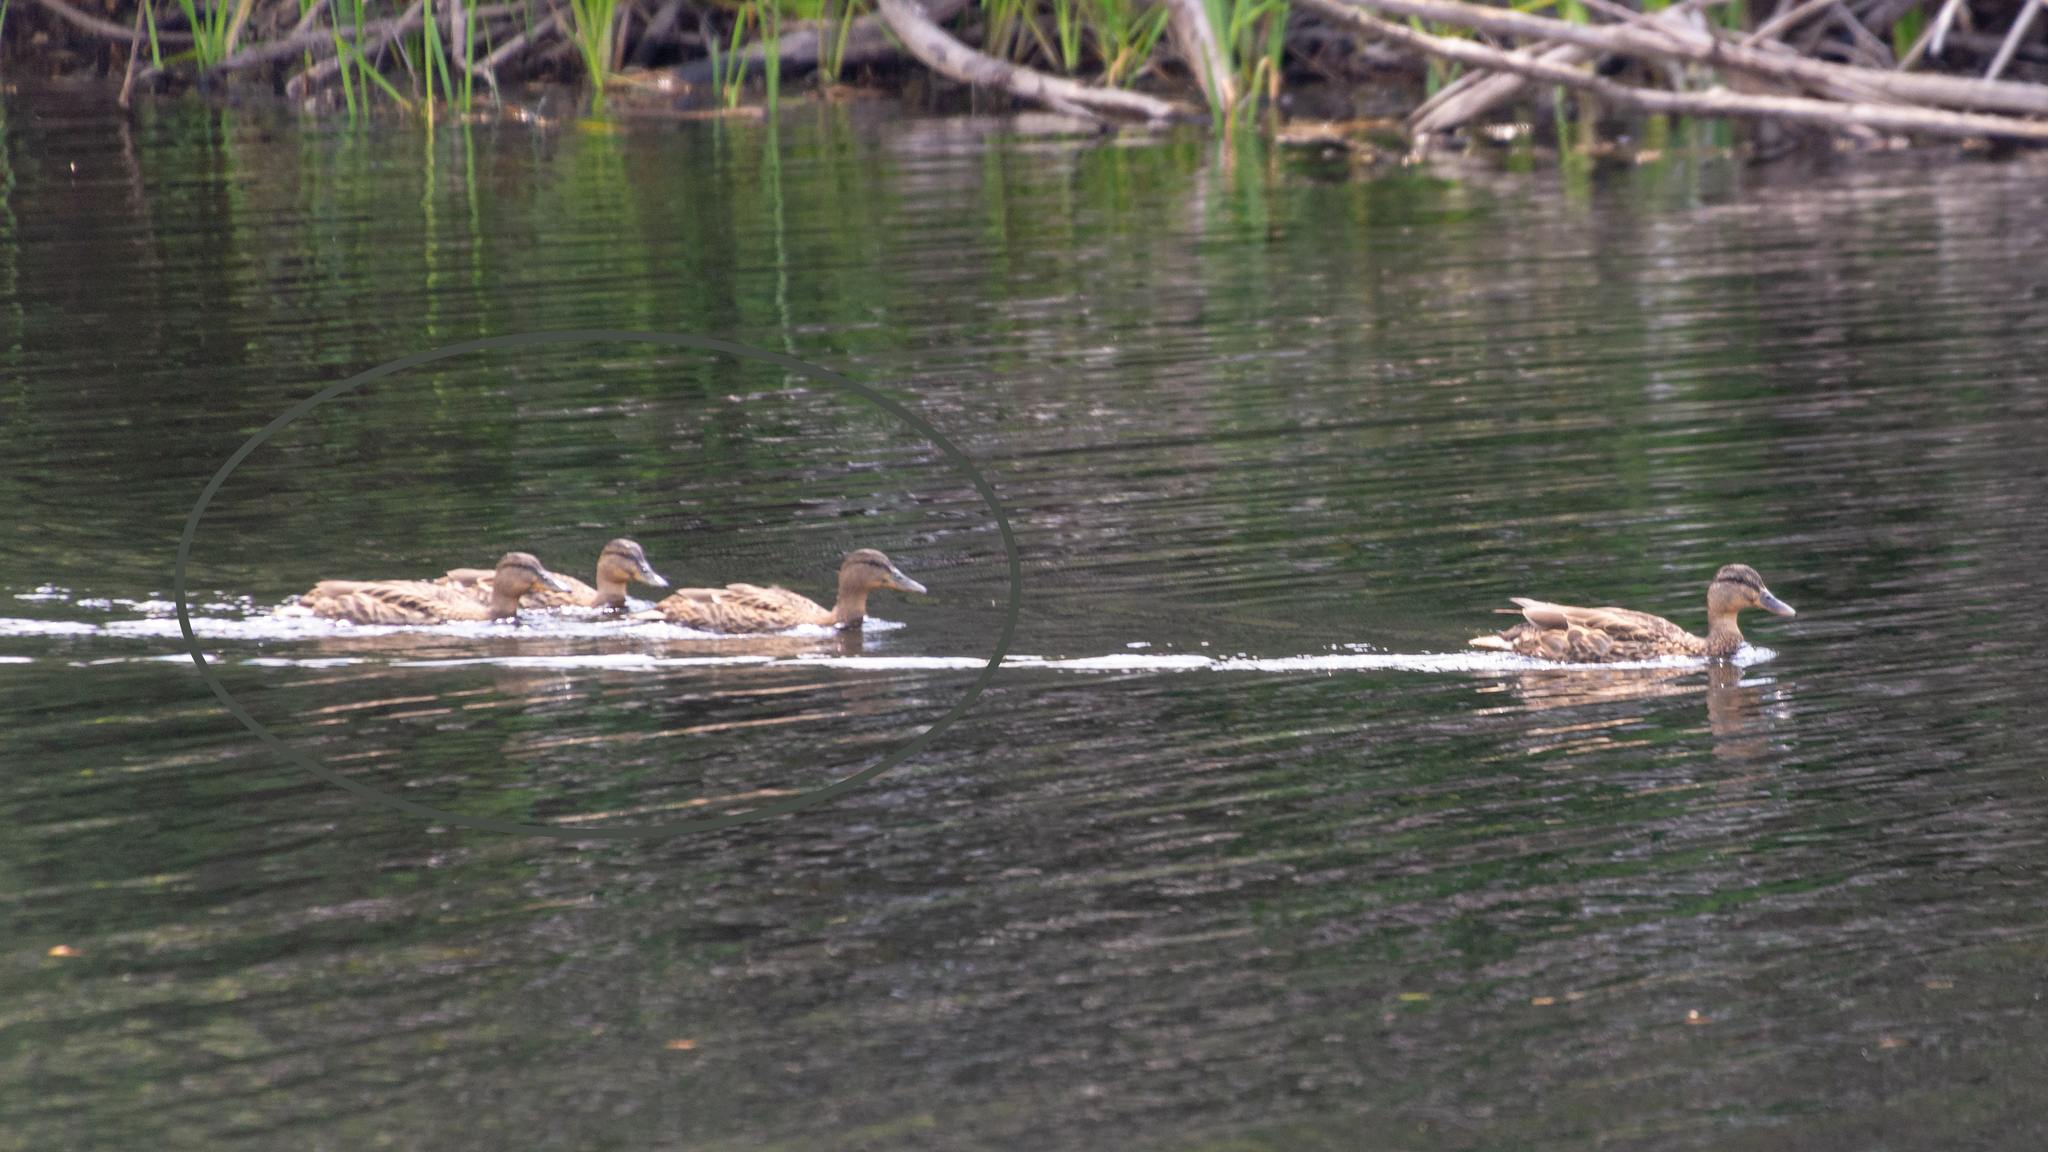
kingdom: Animalia
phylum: Chordata
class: Aves
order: Anseriformes
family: Anatidae
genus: Anas
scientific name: Anas platyrhynchos
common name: Mallard
